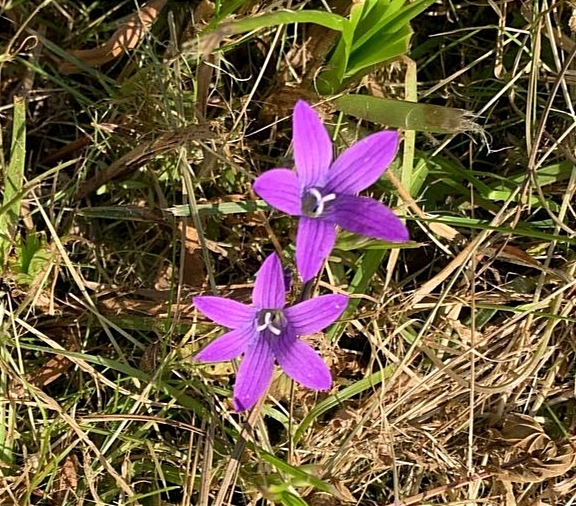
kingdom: Plantae
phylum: Tracheophyta
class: Magnoliopsida
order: Asterales
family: Campanulaceae
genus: Campanula
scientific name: Campanula patula
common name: Spreading bellflower
